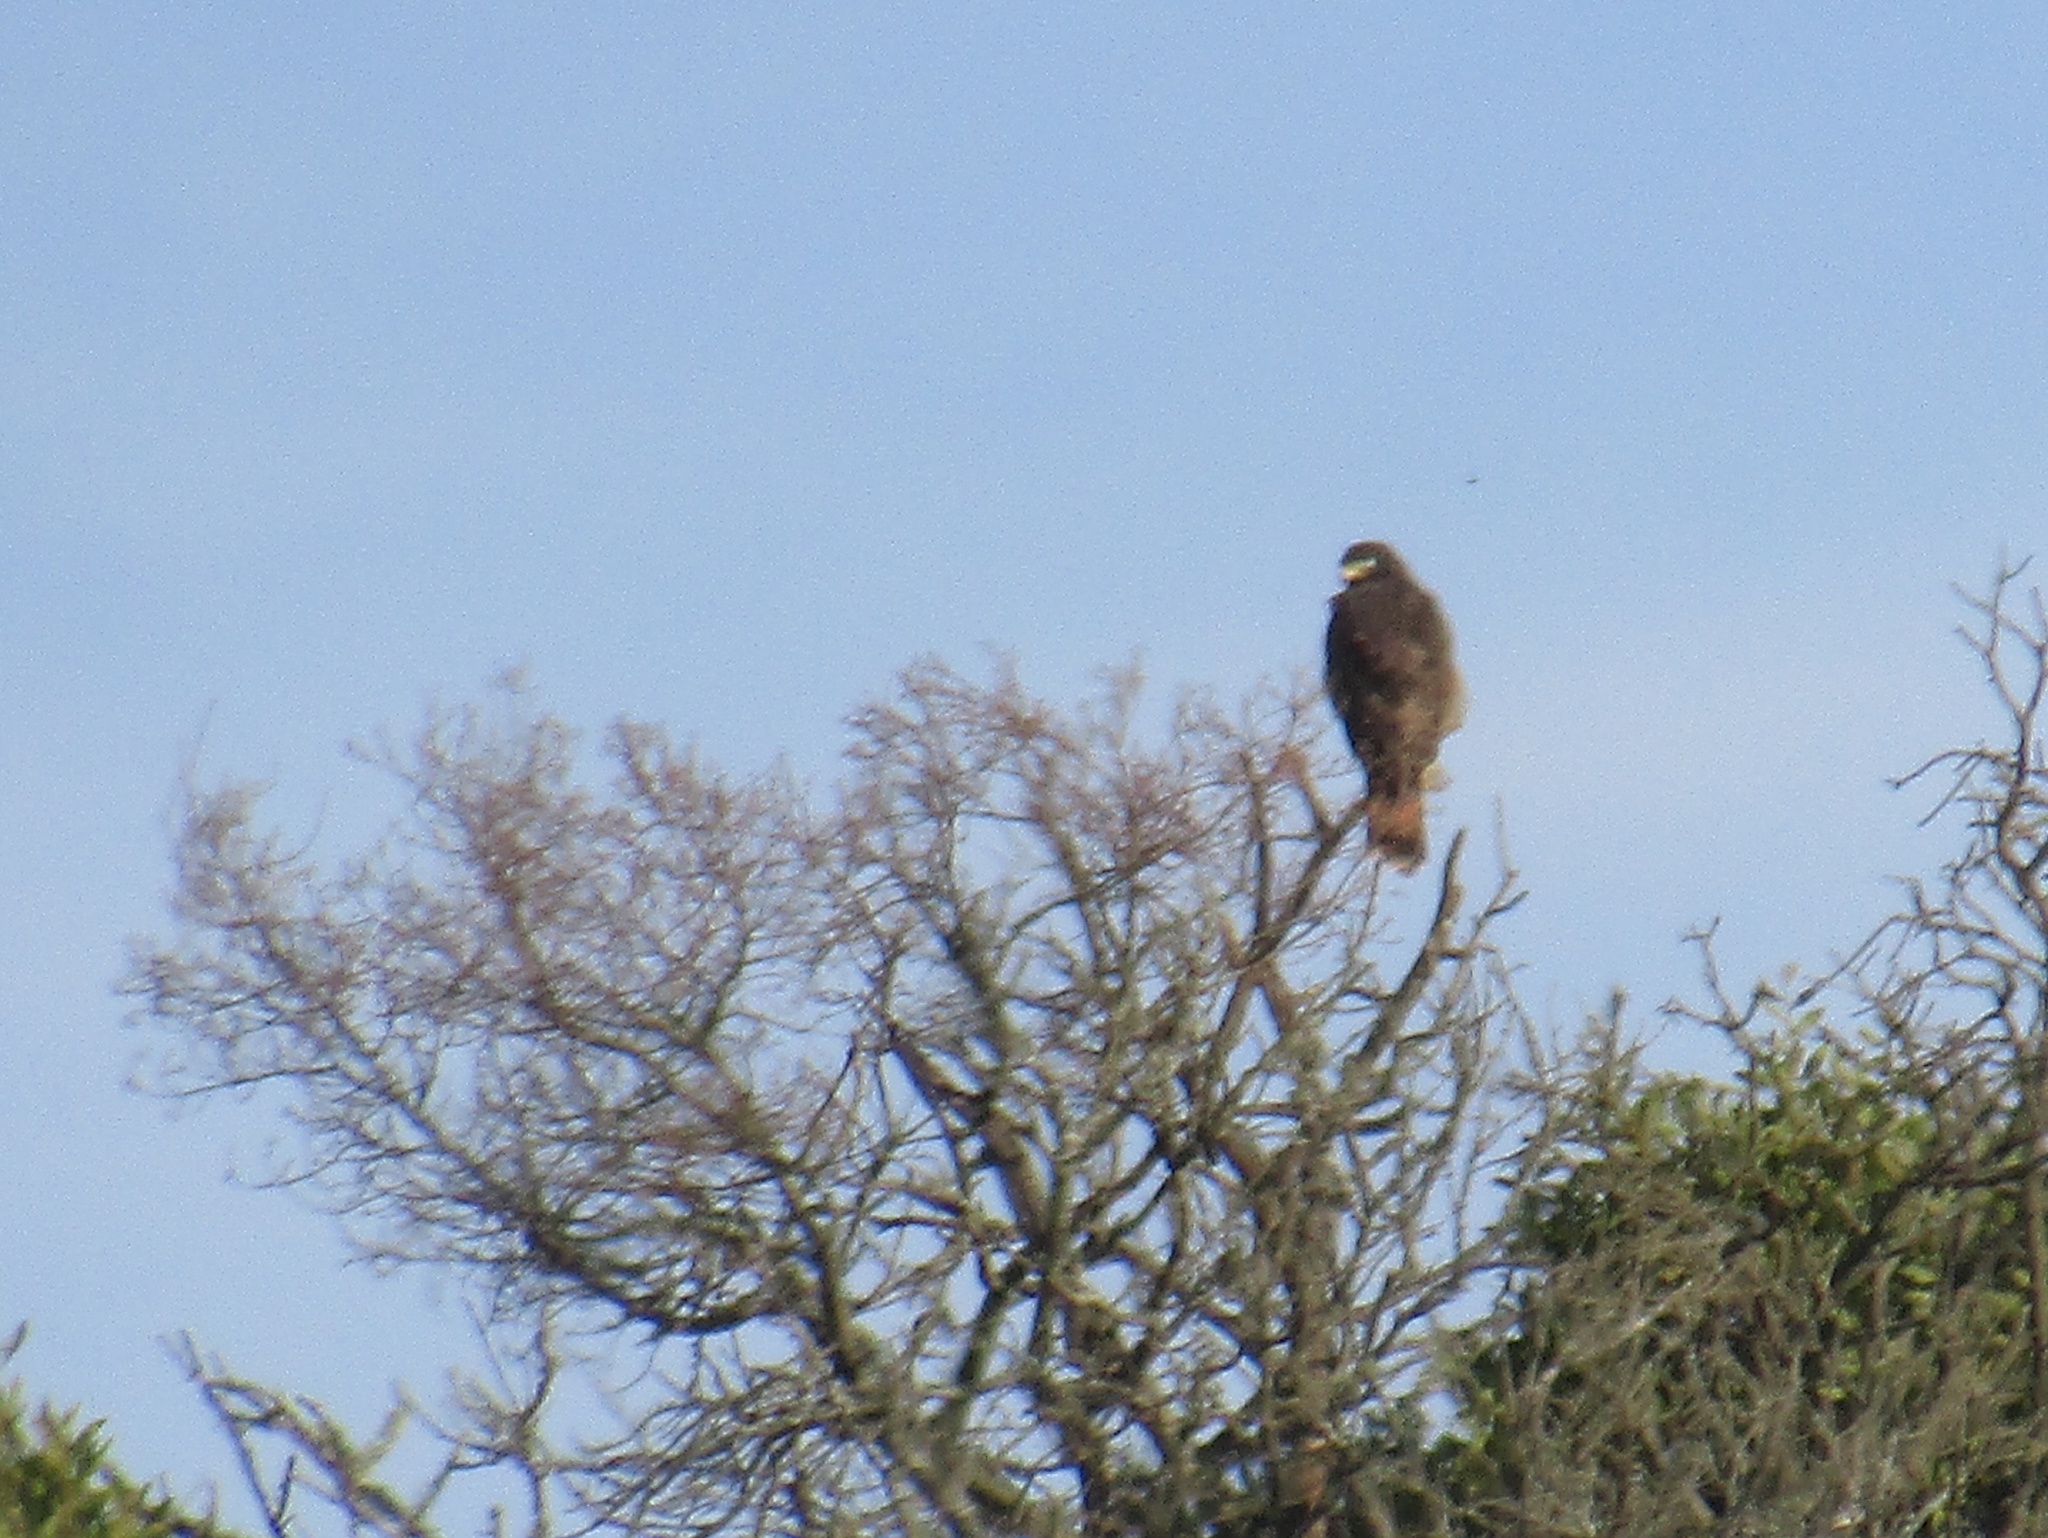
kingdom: Animalia
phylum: Chordata
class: Aves
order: Accipitriformes
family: Accipitridae
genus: Rupornis
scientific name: Rupornis magnirostris
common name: Roadside hawk
